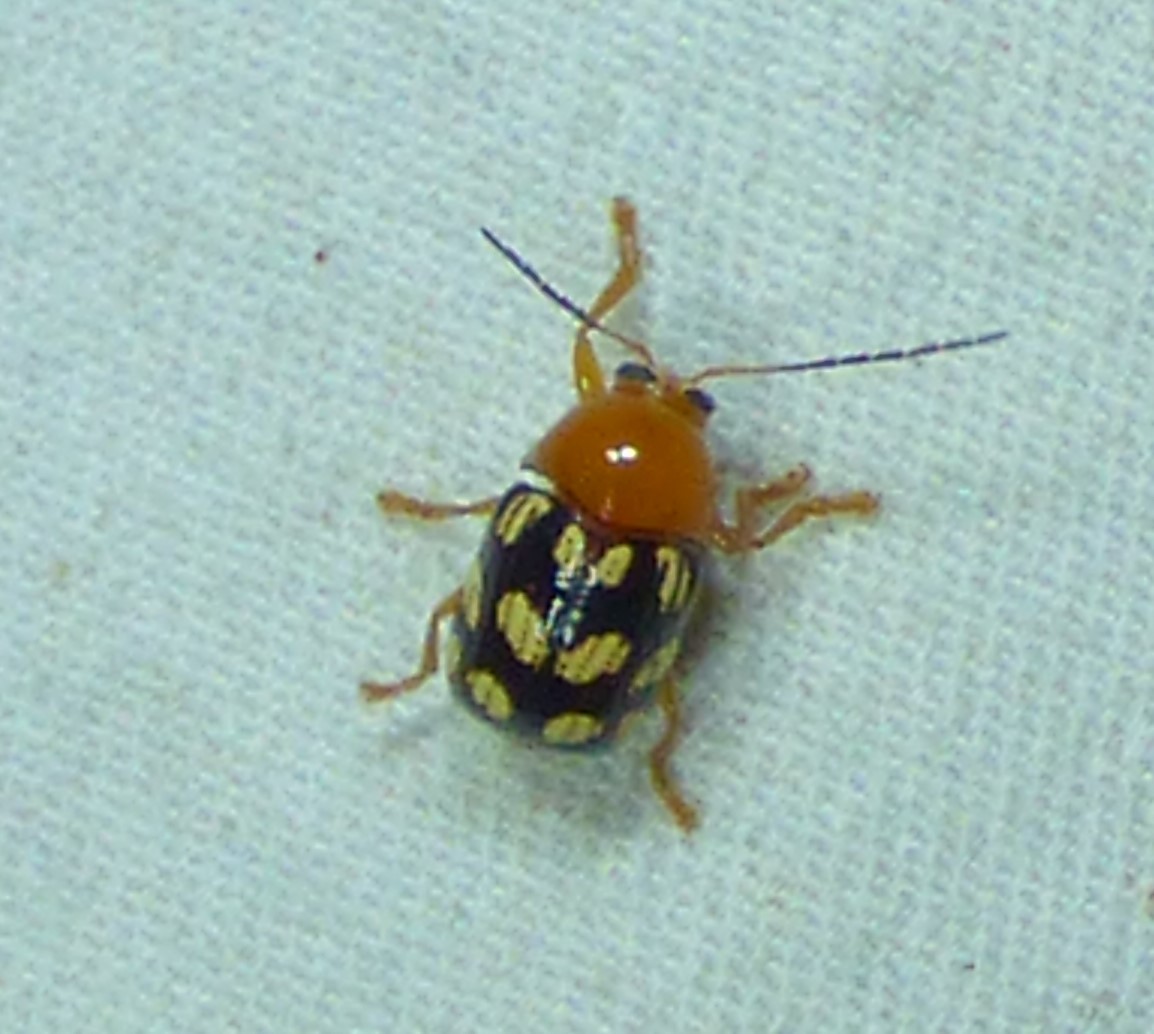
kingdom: Animalia
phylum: Arthropoda
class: Insecta
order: Coleoptera
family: Chrysomelidae
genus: Cryptocephalus
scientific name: Cryptocephalus guttulatus
